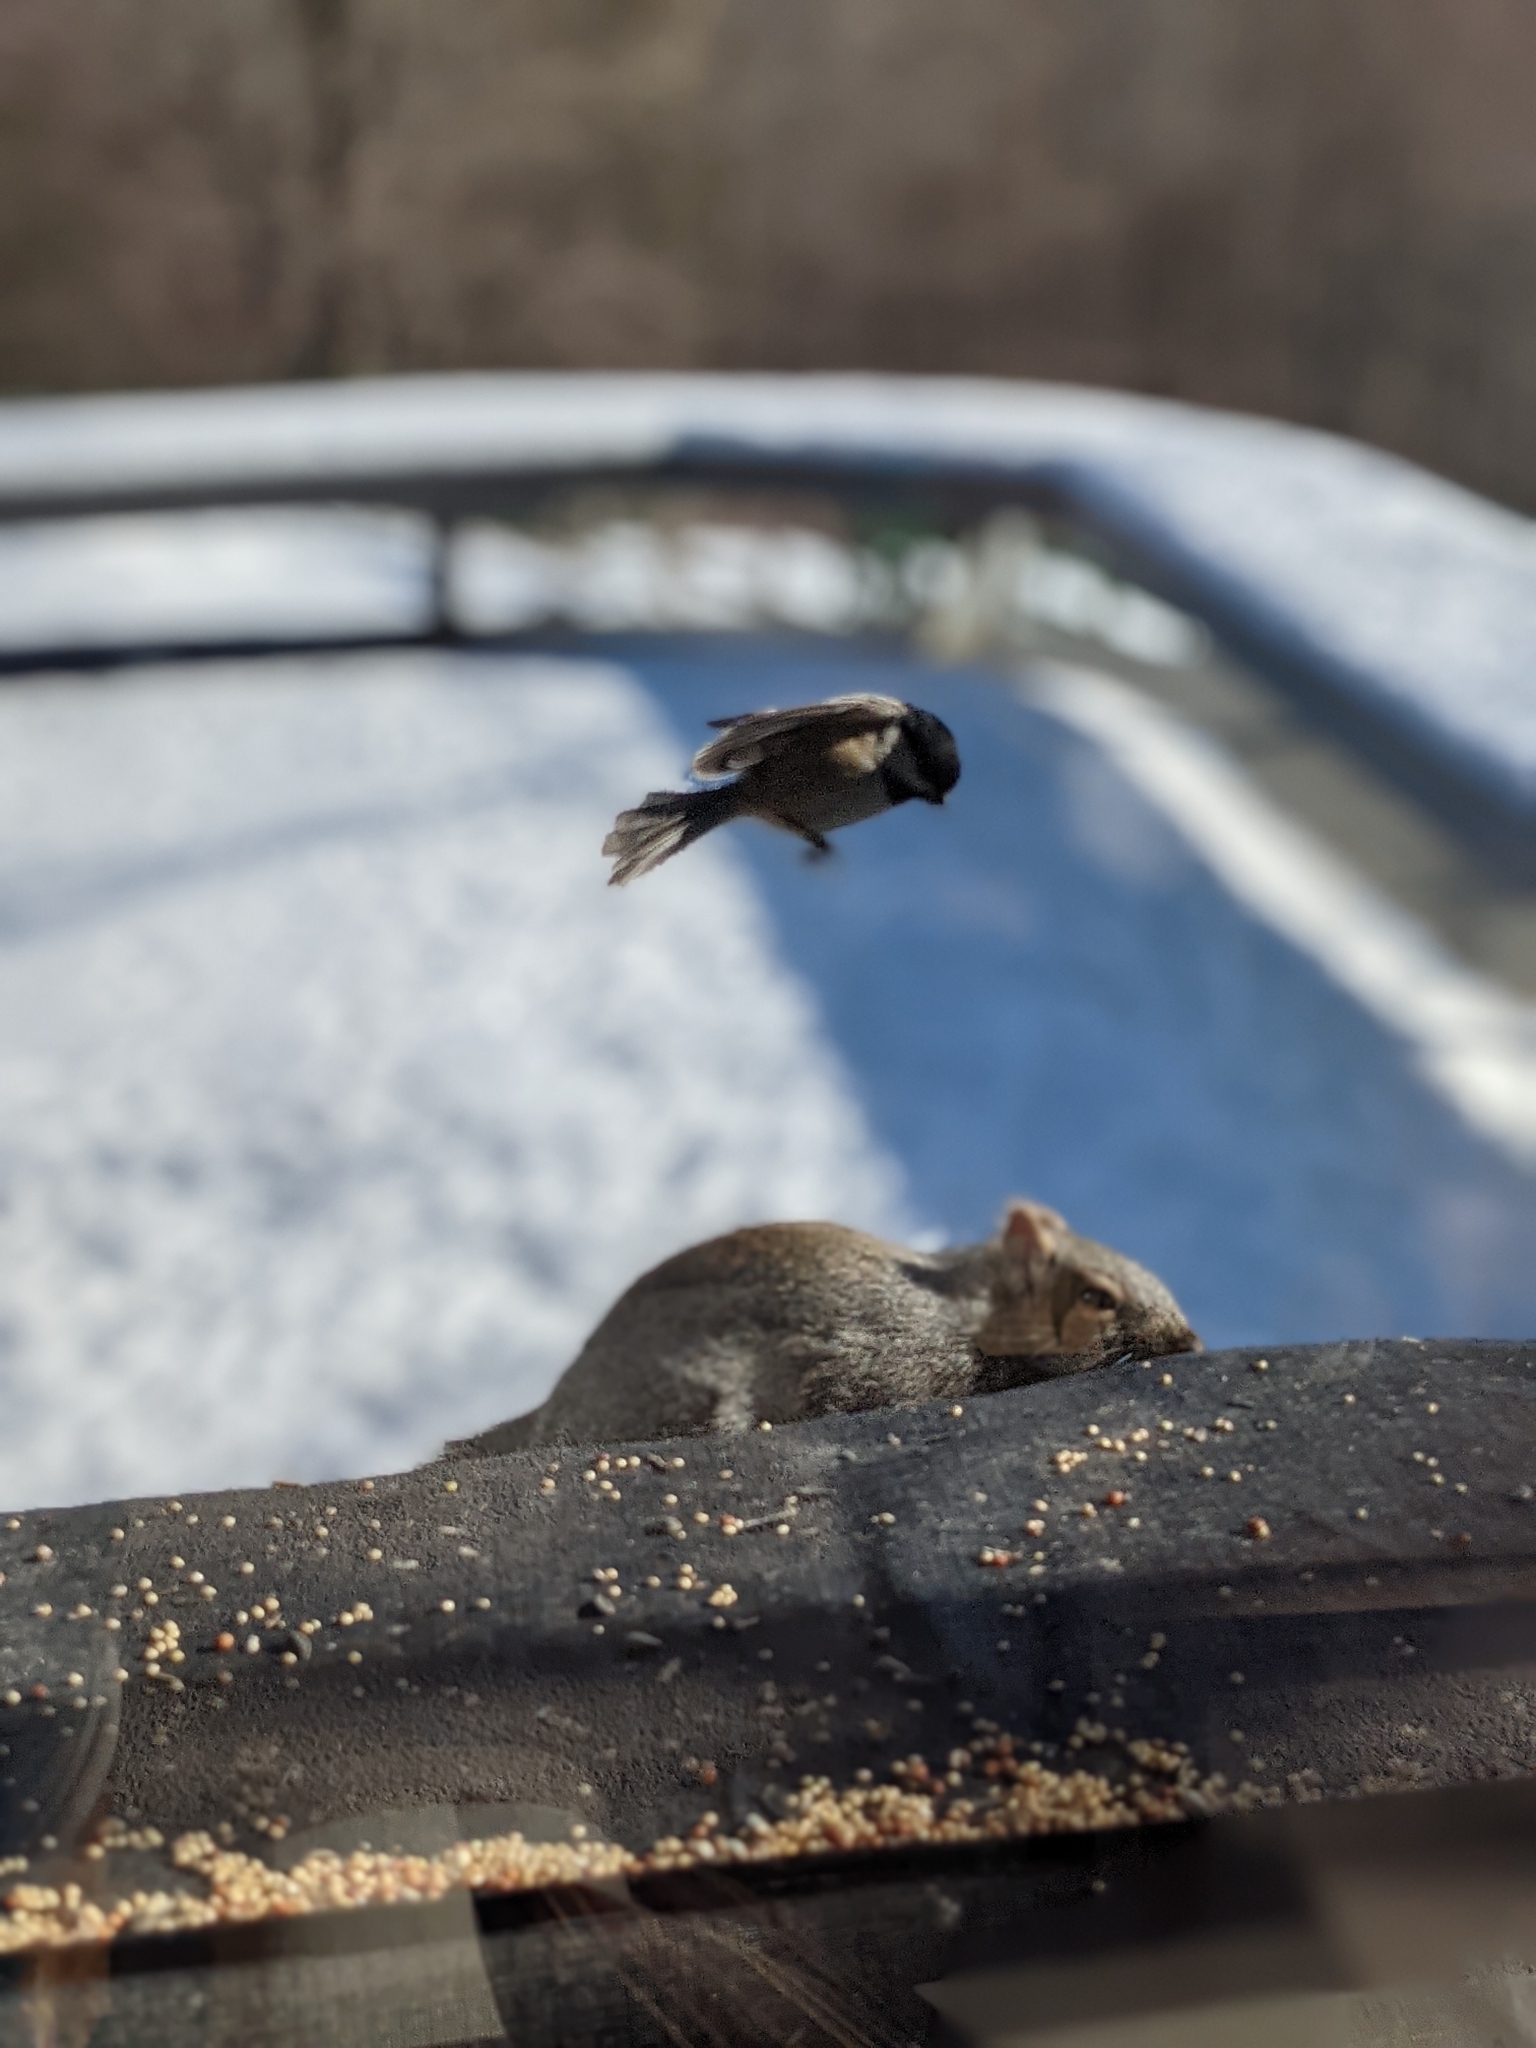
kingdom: Animalia
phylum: Chordata
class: Mammalia
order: Rodentia
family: Sciuridae
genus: Sciurus
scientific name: Sciurus carolinensis
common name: Eastern gray squirrel
